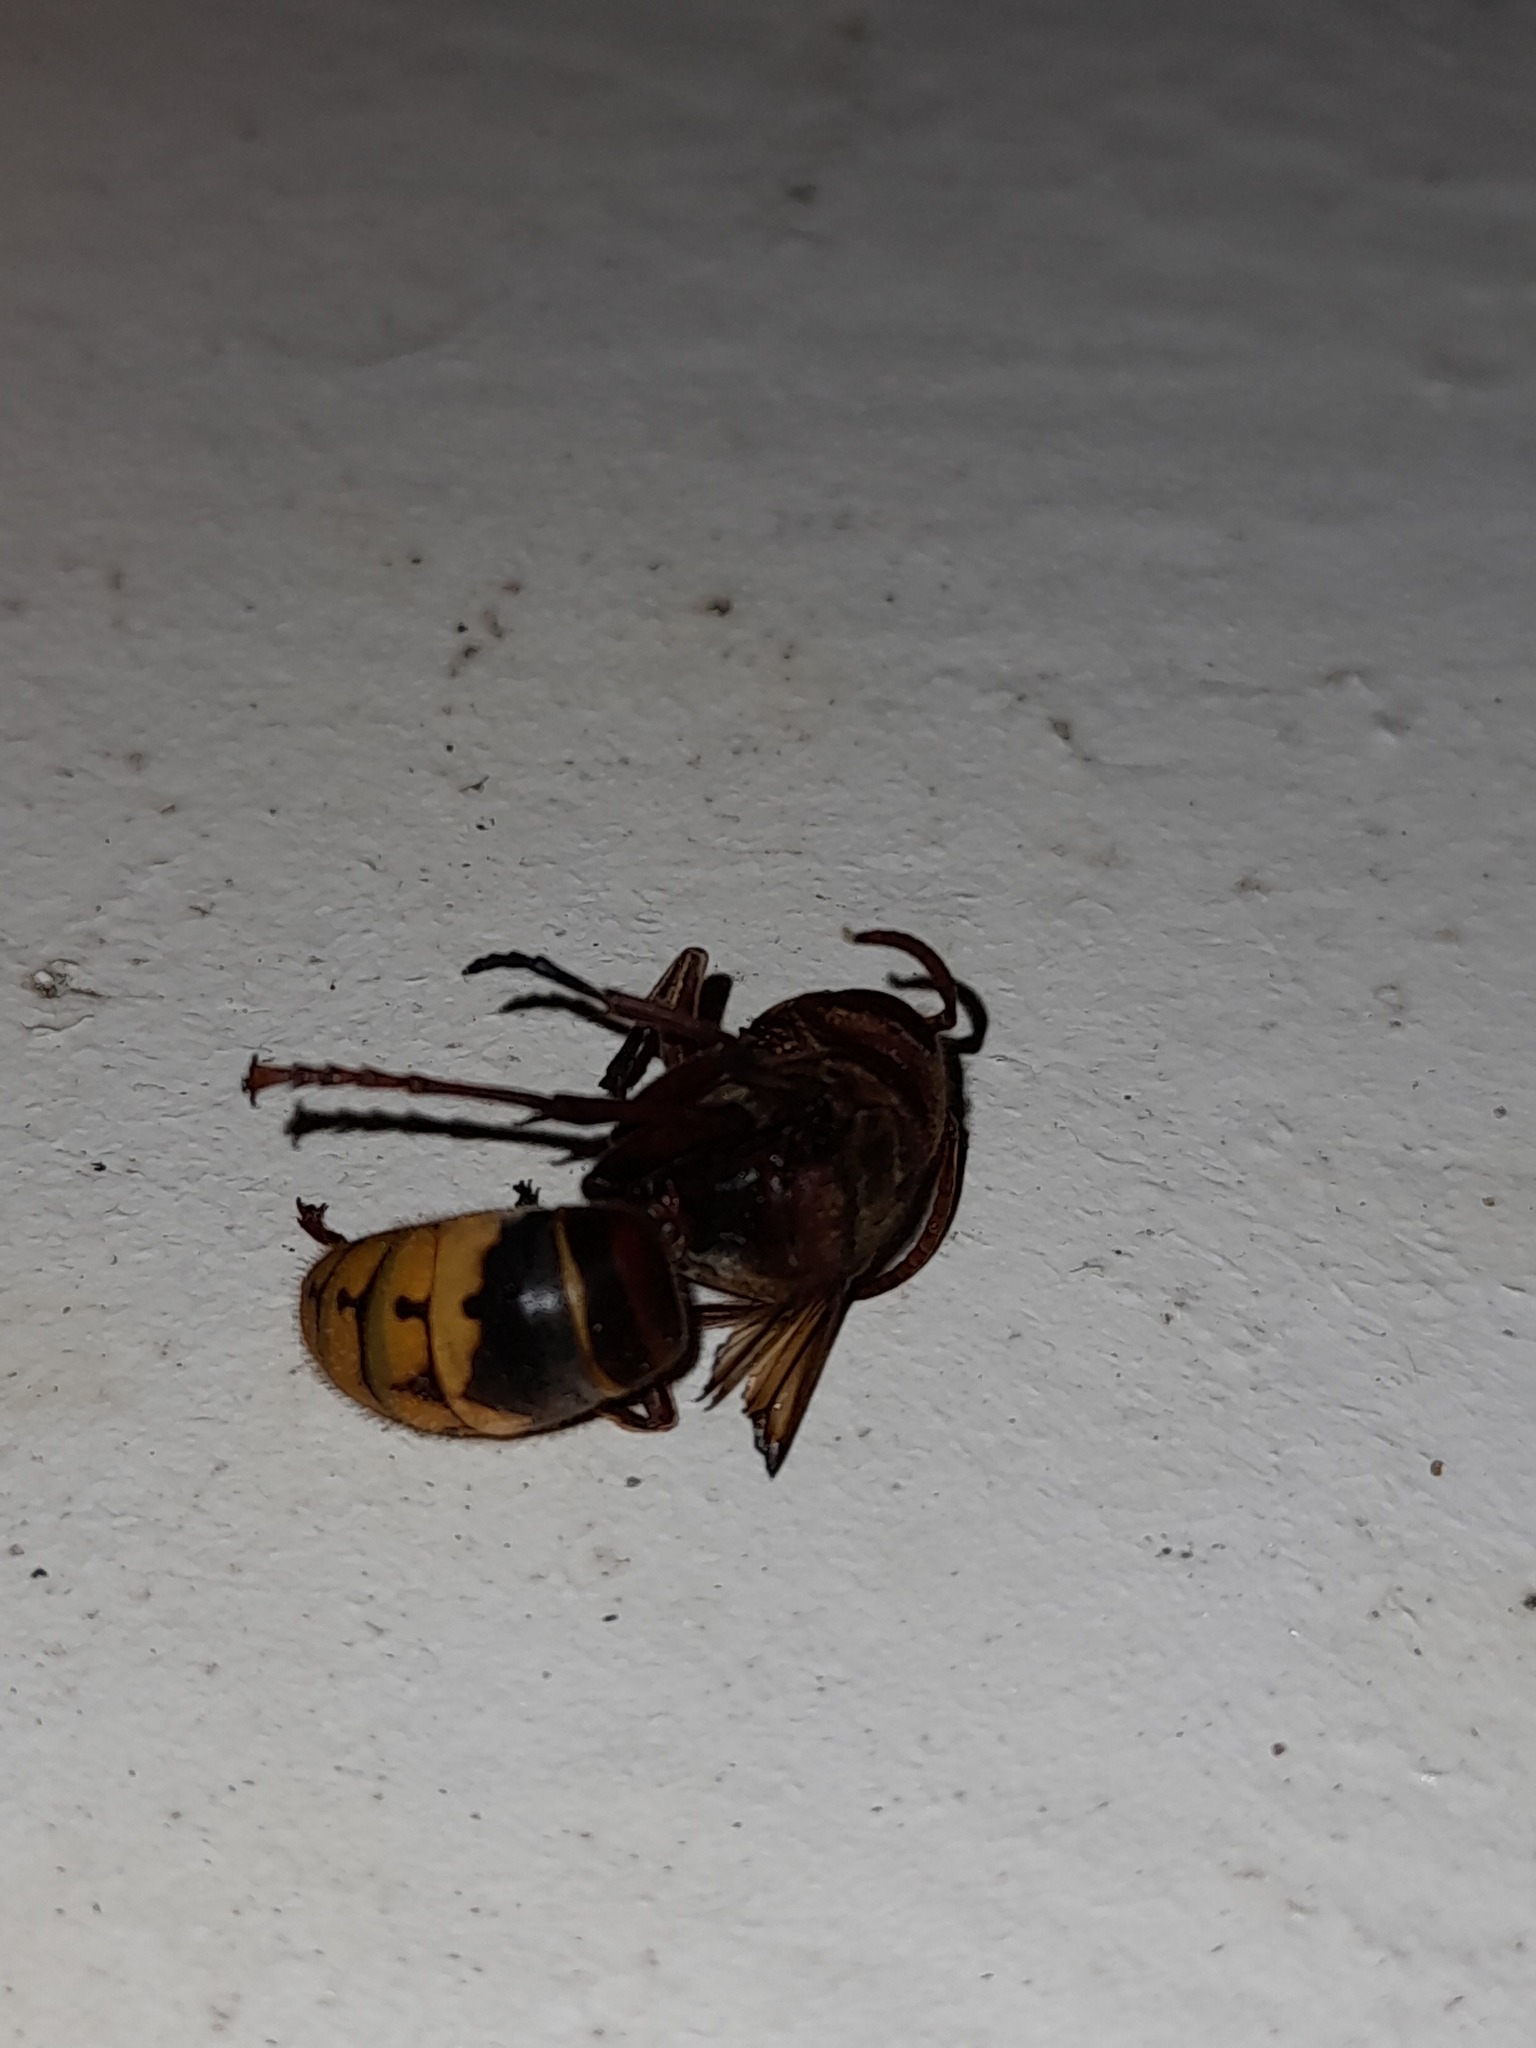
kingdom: Animalia
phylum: Arthropoda
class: Insecta
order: Hymenoptera
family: Vespidae
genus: Vespa
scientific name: Vespa crabro
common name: Hornet
